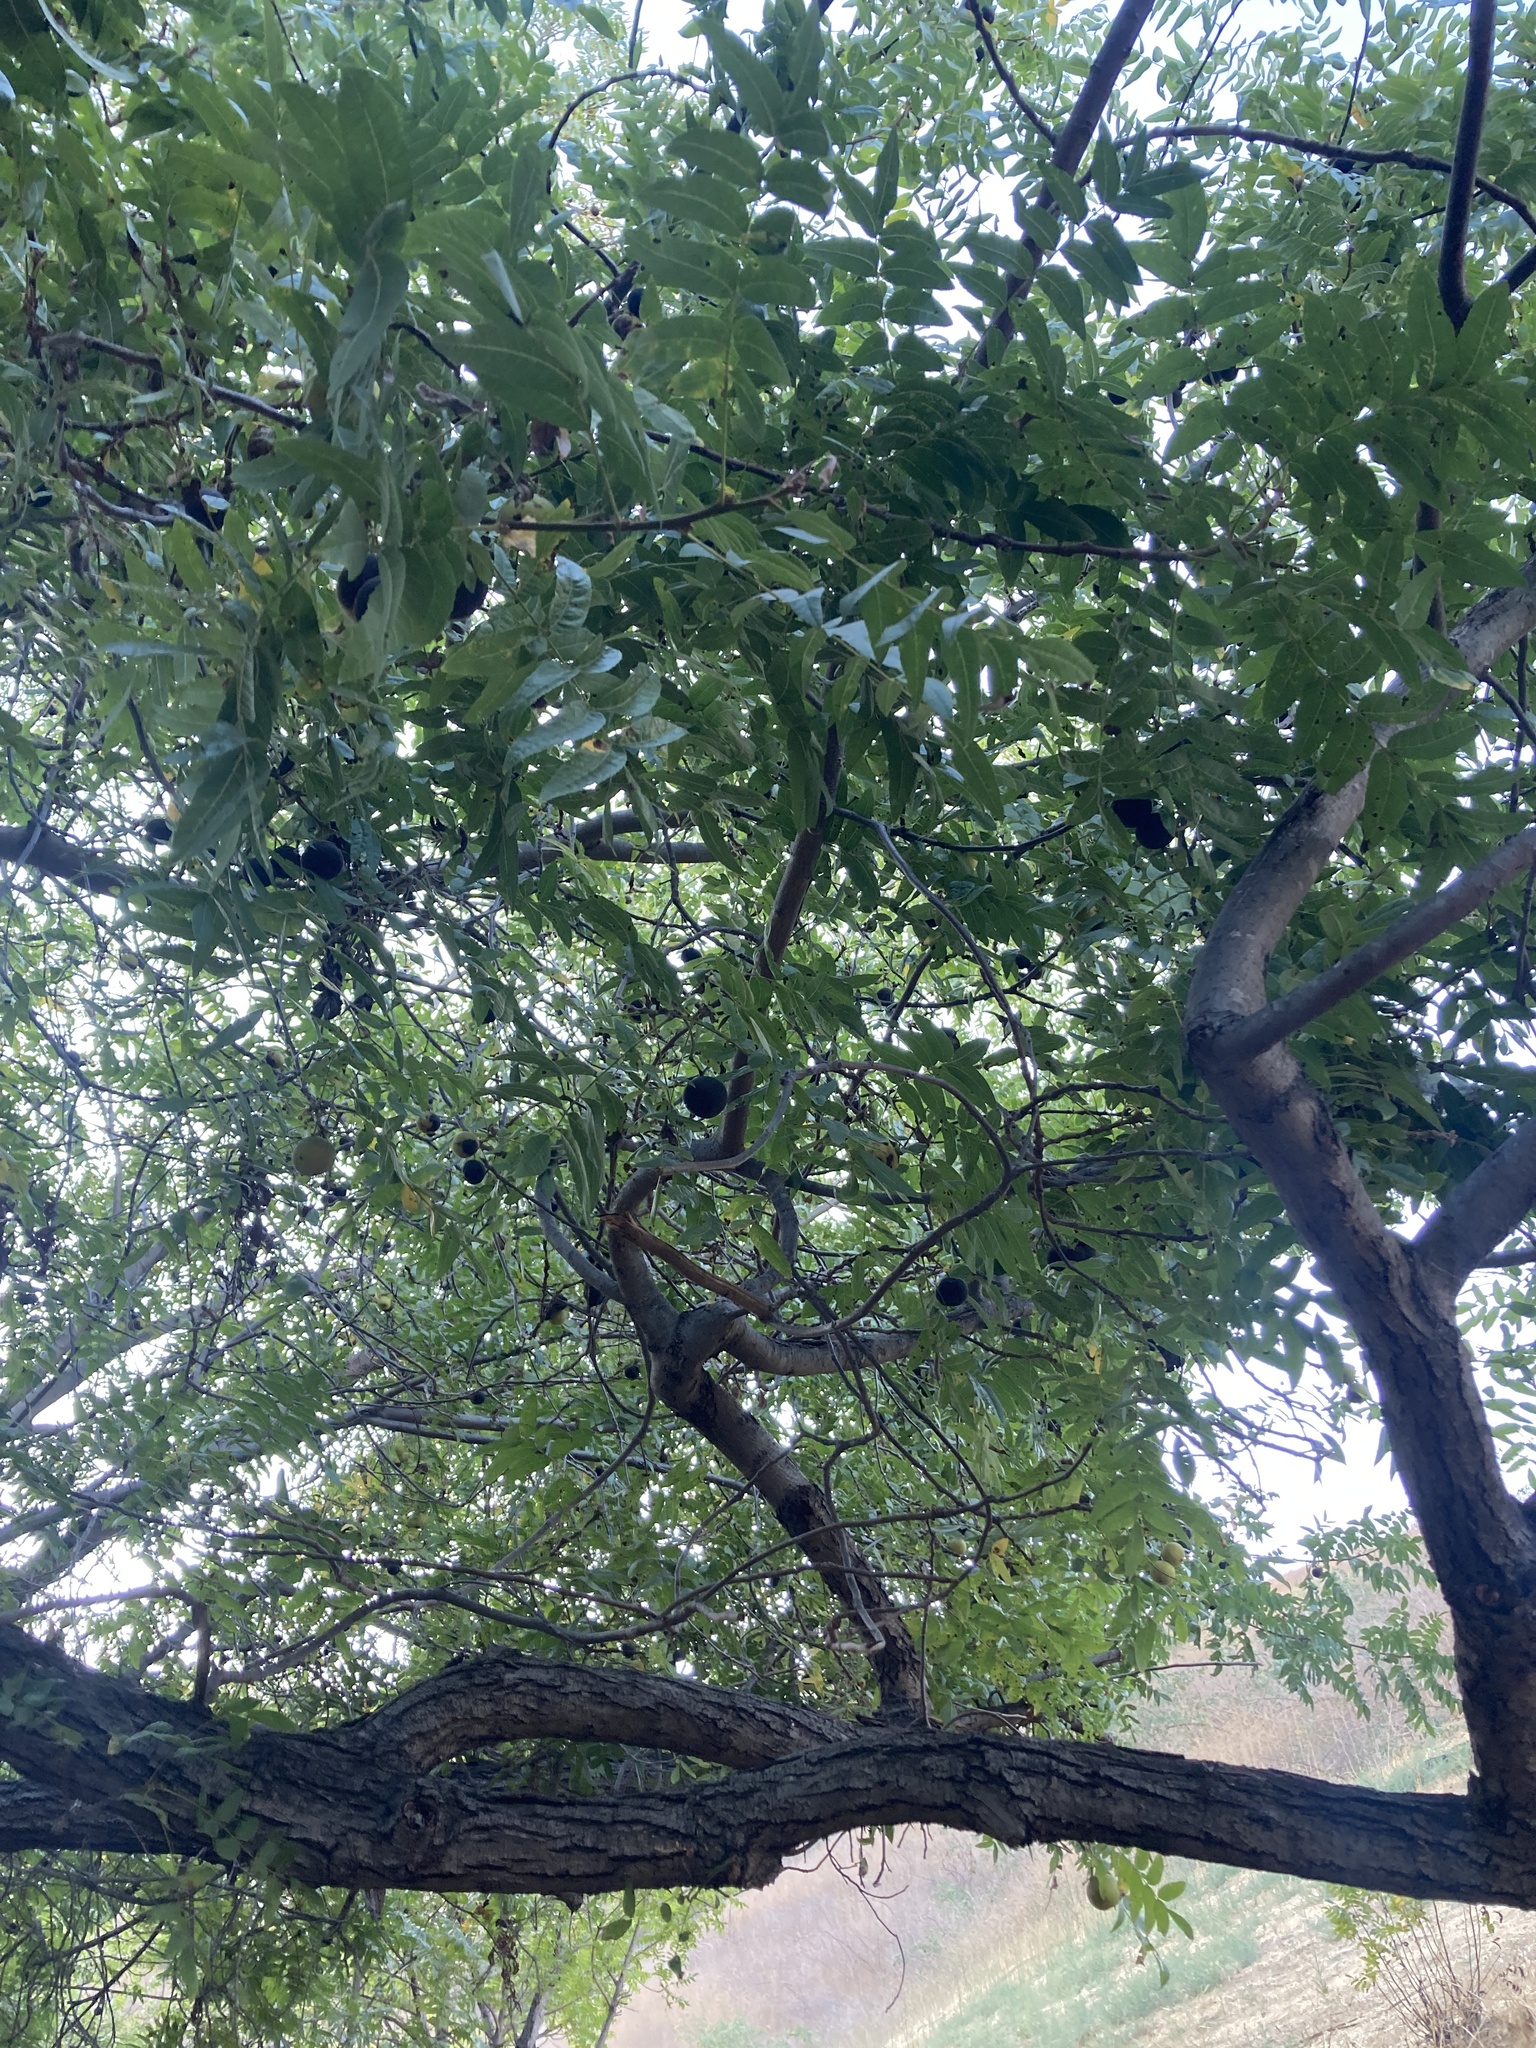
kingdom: Plantae
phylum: Tracheophyta
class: Magnoliopsida
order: Fagales
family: Juglandaceae
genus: Juglans
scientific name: Juglans californica
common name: Southern california black walnut
